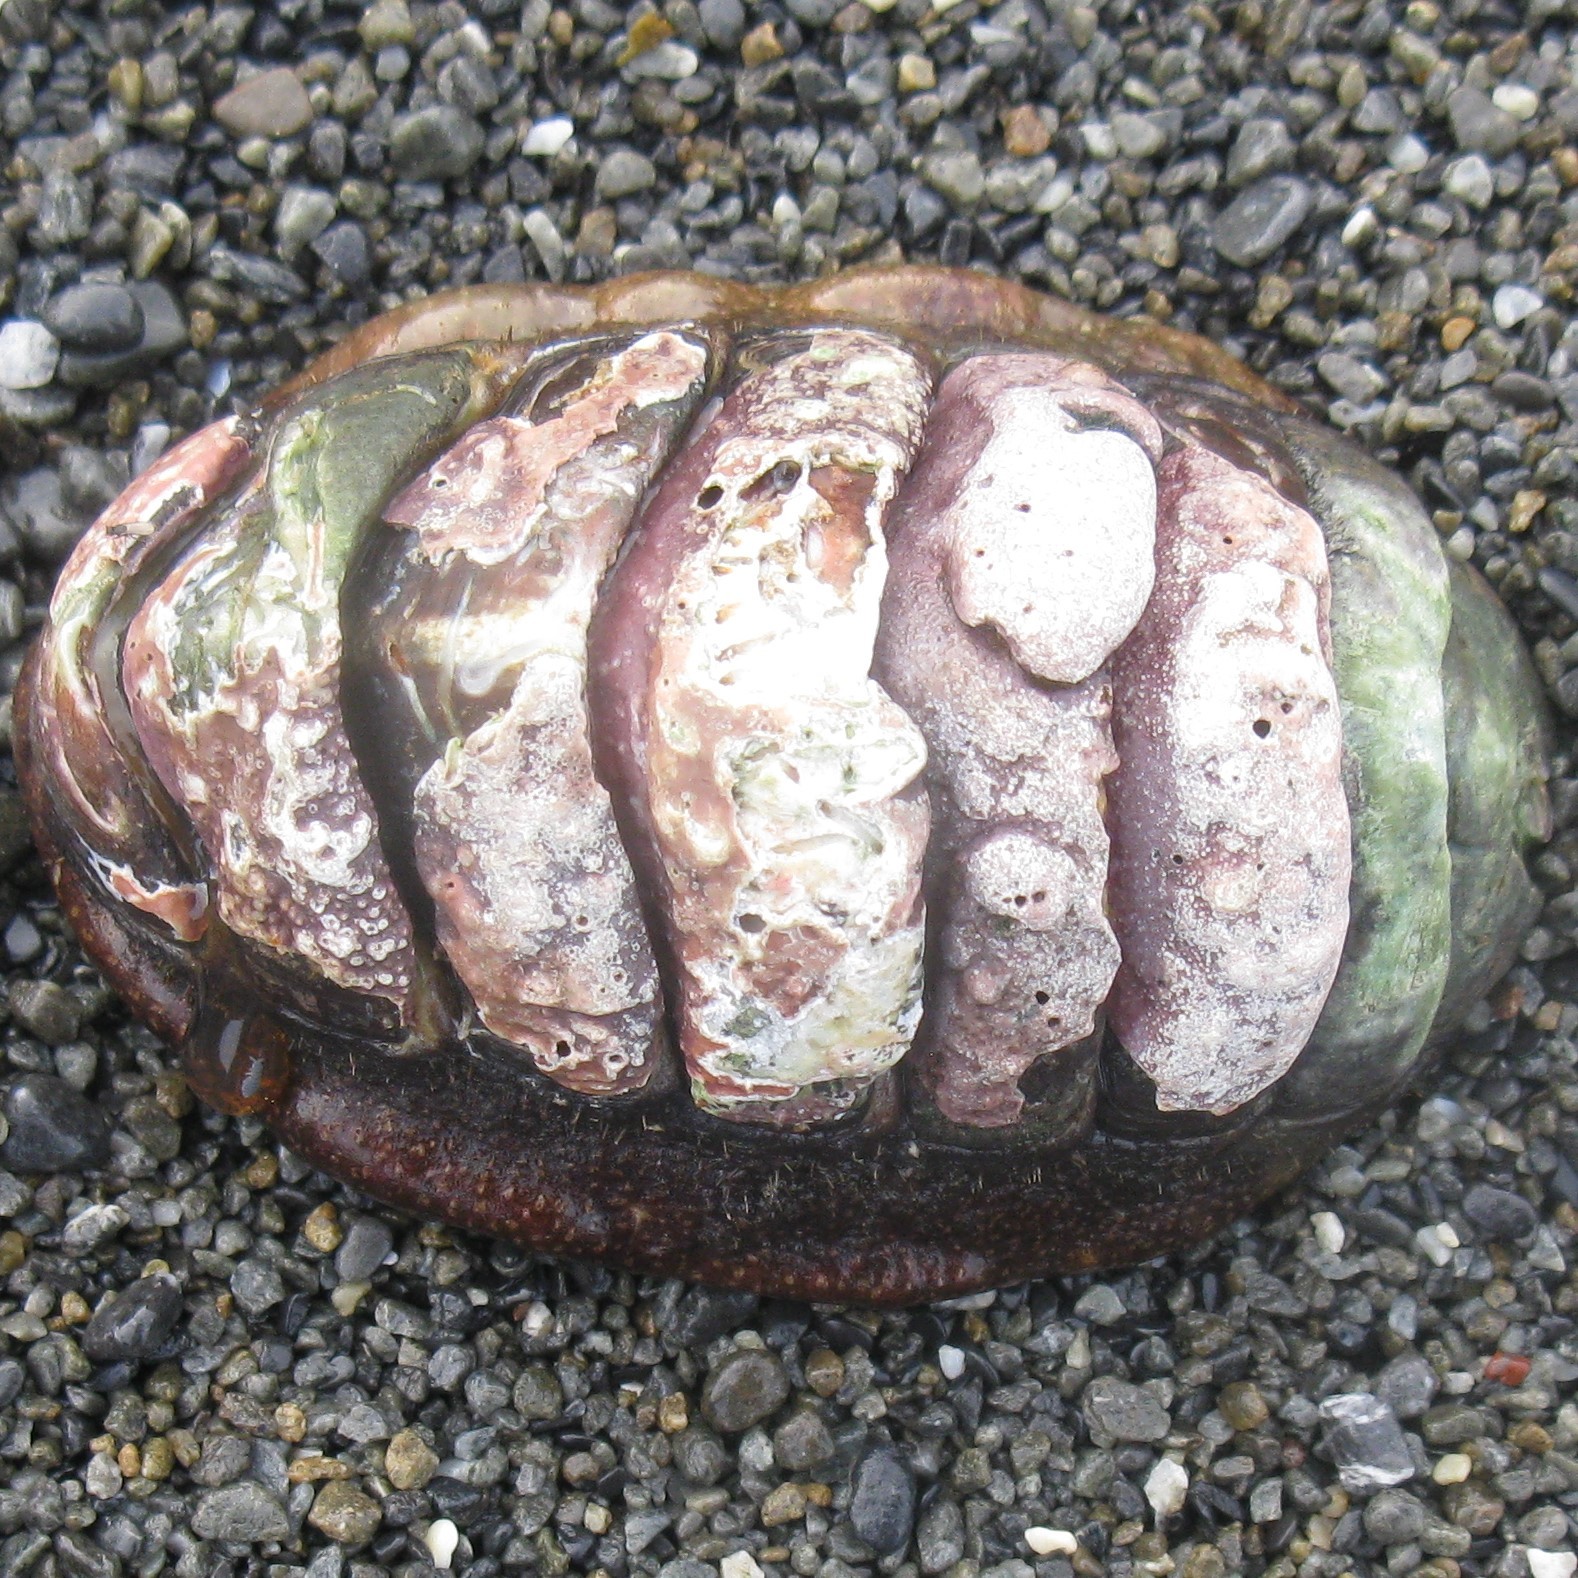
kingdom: Animalia
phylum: Mollusca
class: Polyplacophora
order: Callochitonida
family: Callochitonidae
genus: Eudoxochiton
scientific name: Eudoxochiton nobilis
